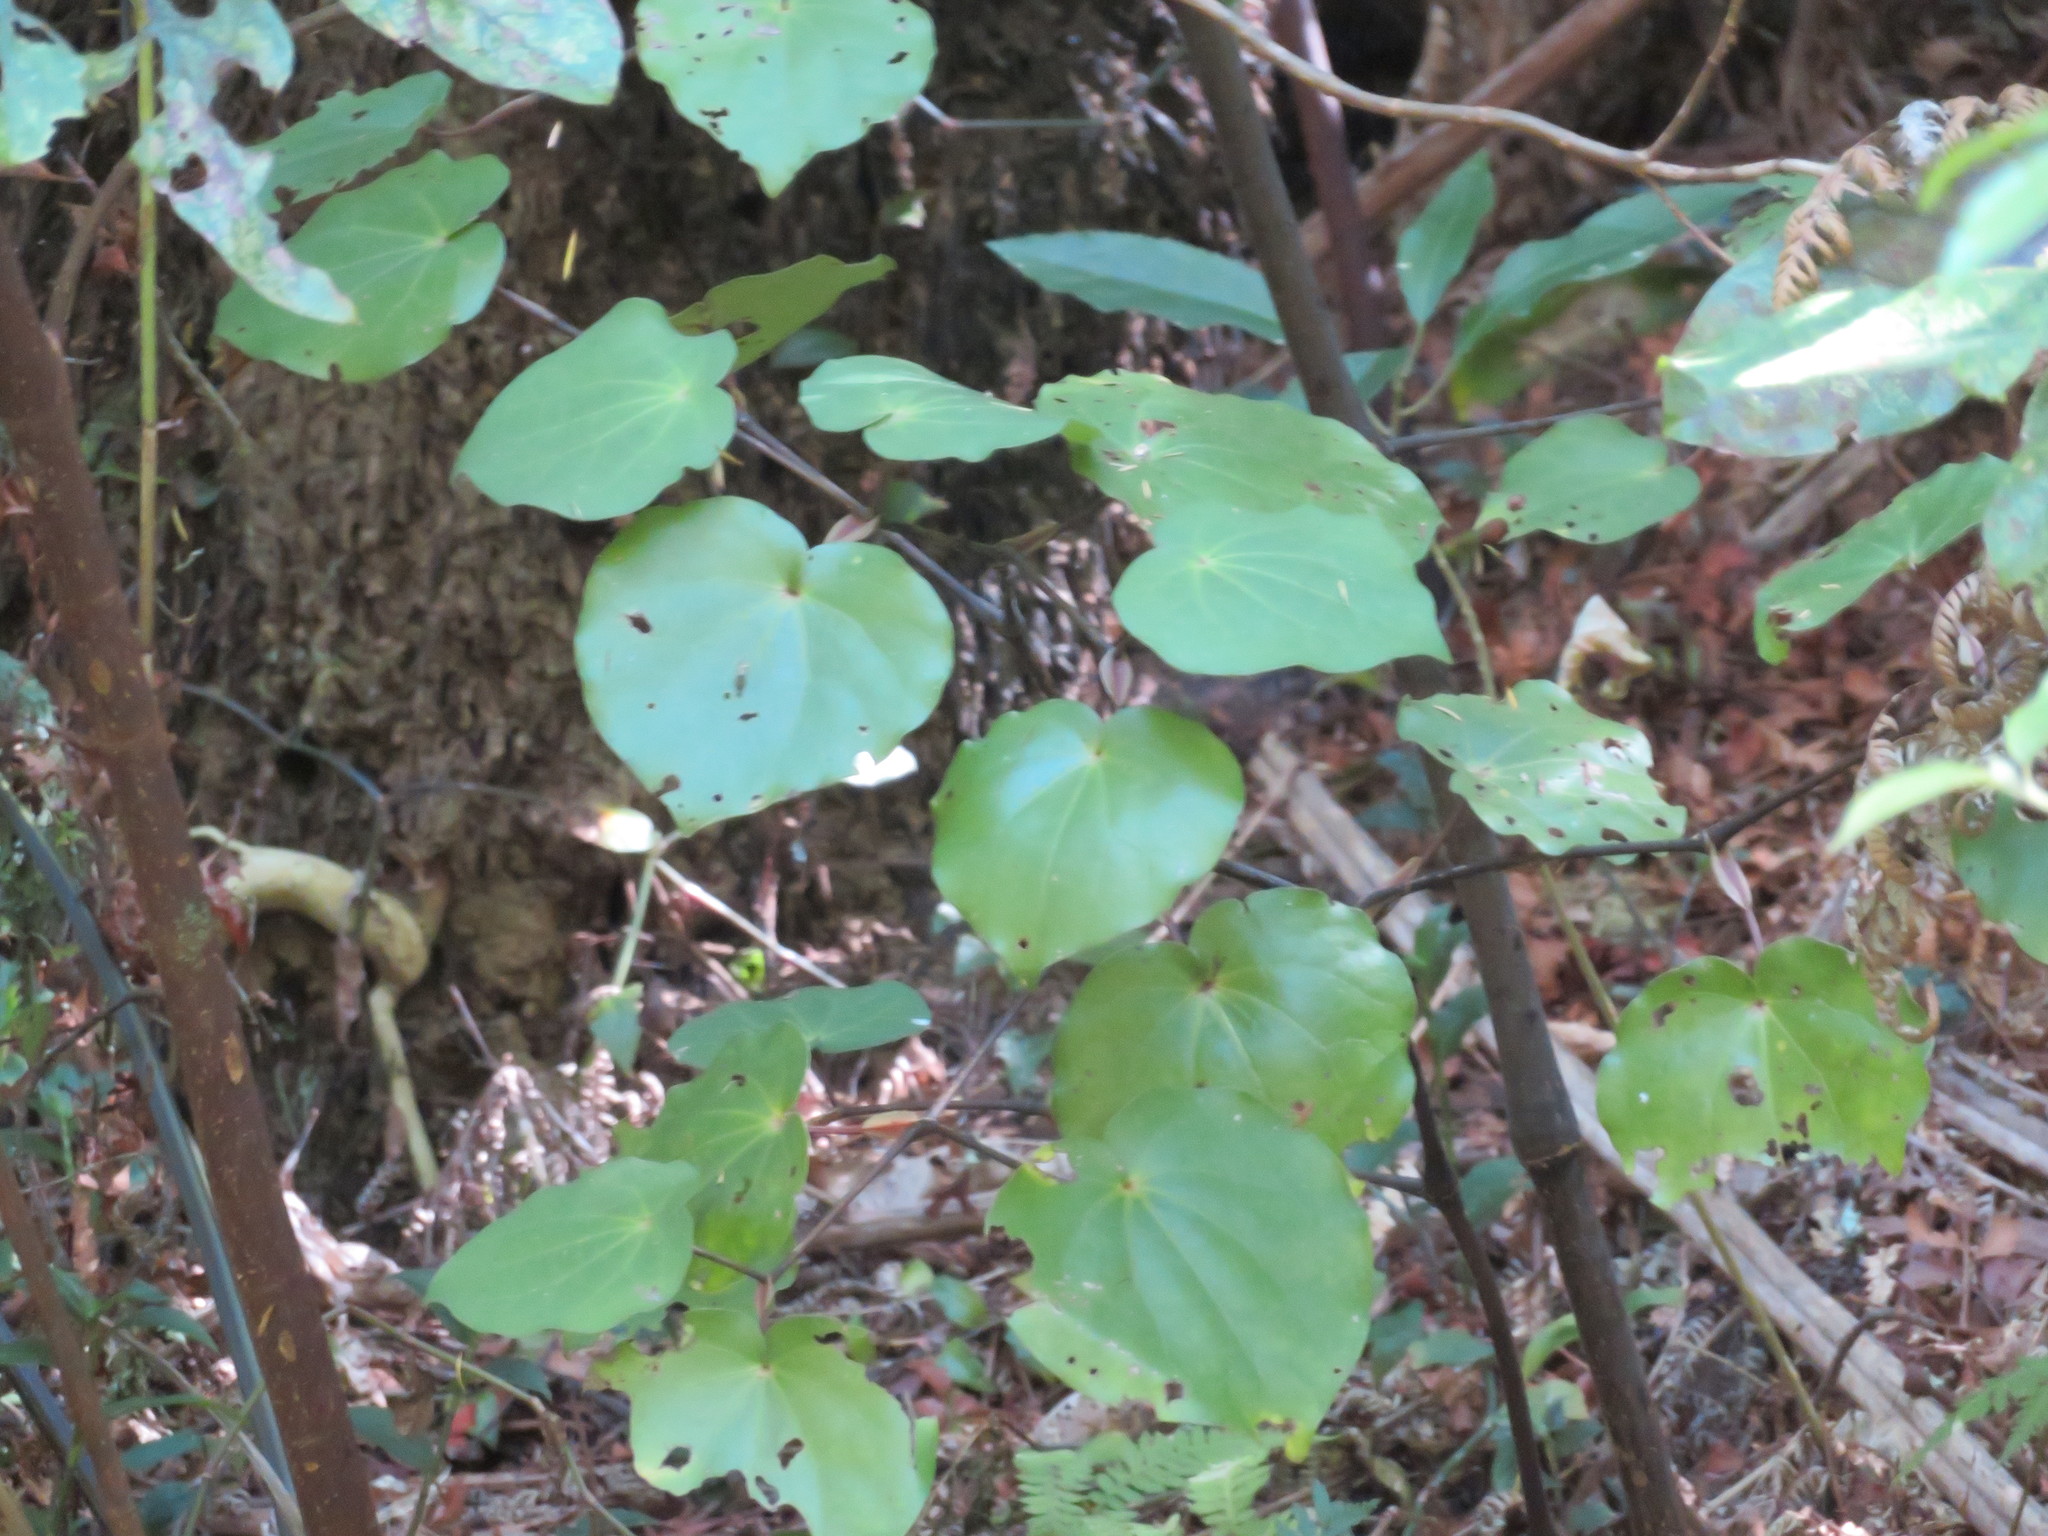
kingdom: Plantae
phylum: Tracheophyta
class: Magnoliopsida
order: Piperales
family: Piperaceae
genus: Macropiper
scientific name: Macropiper excelsum
